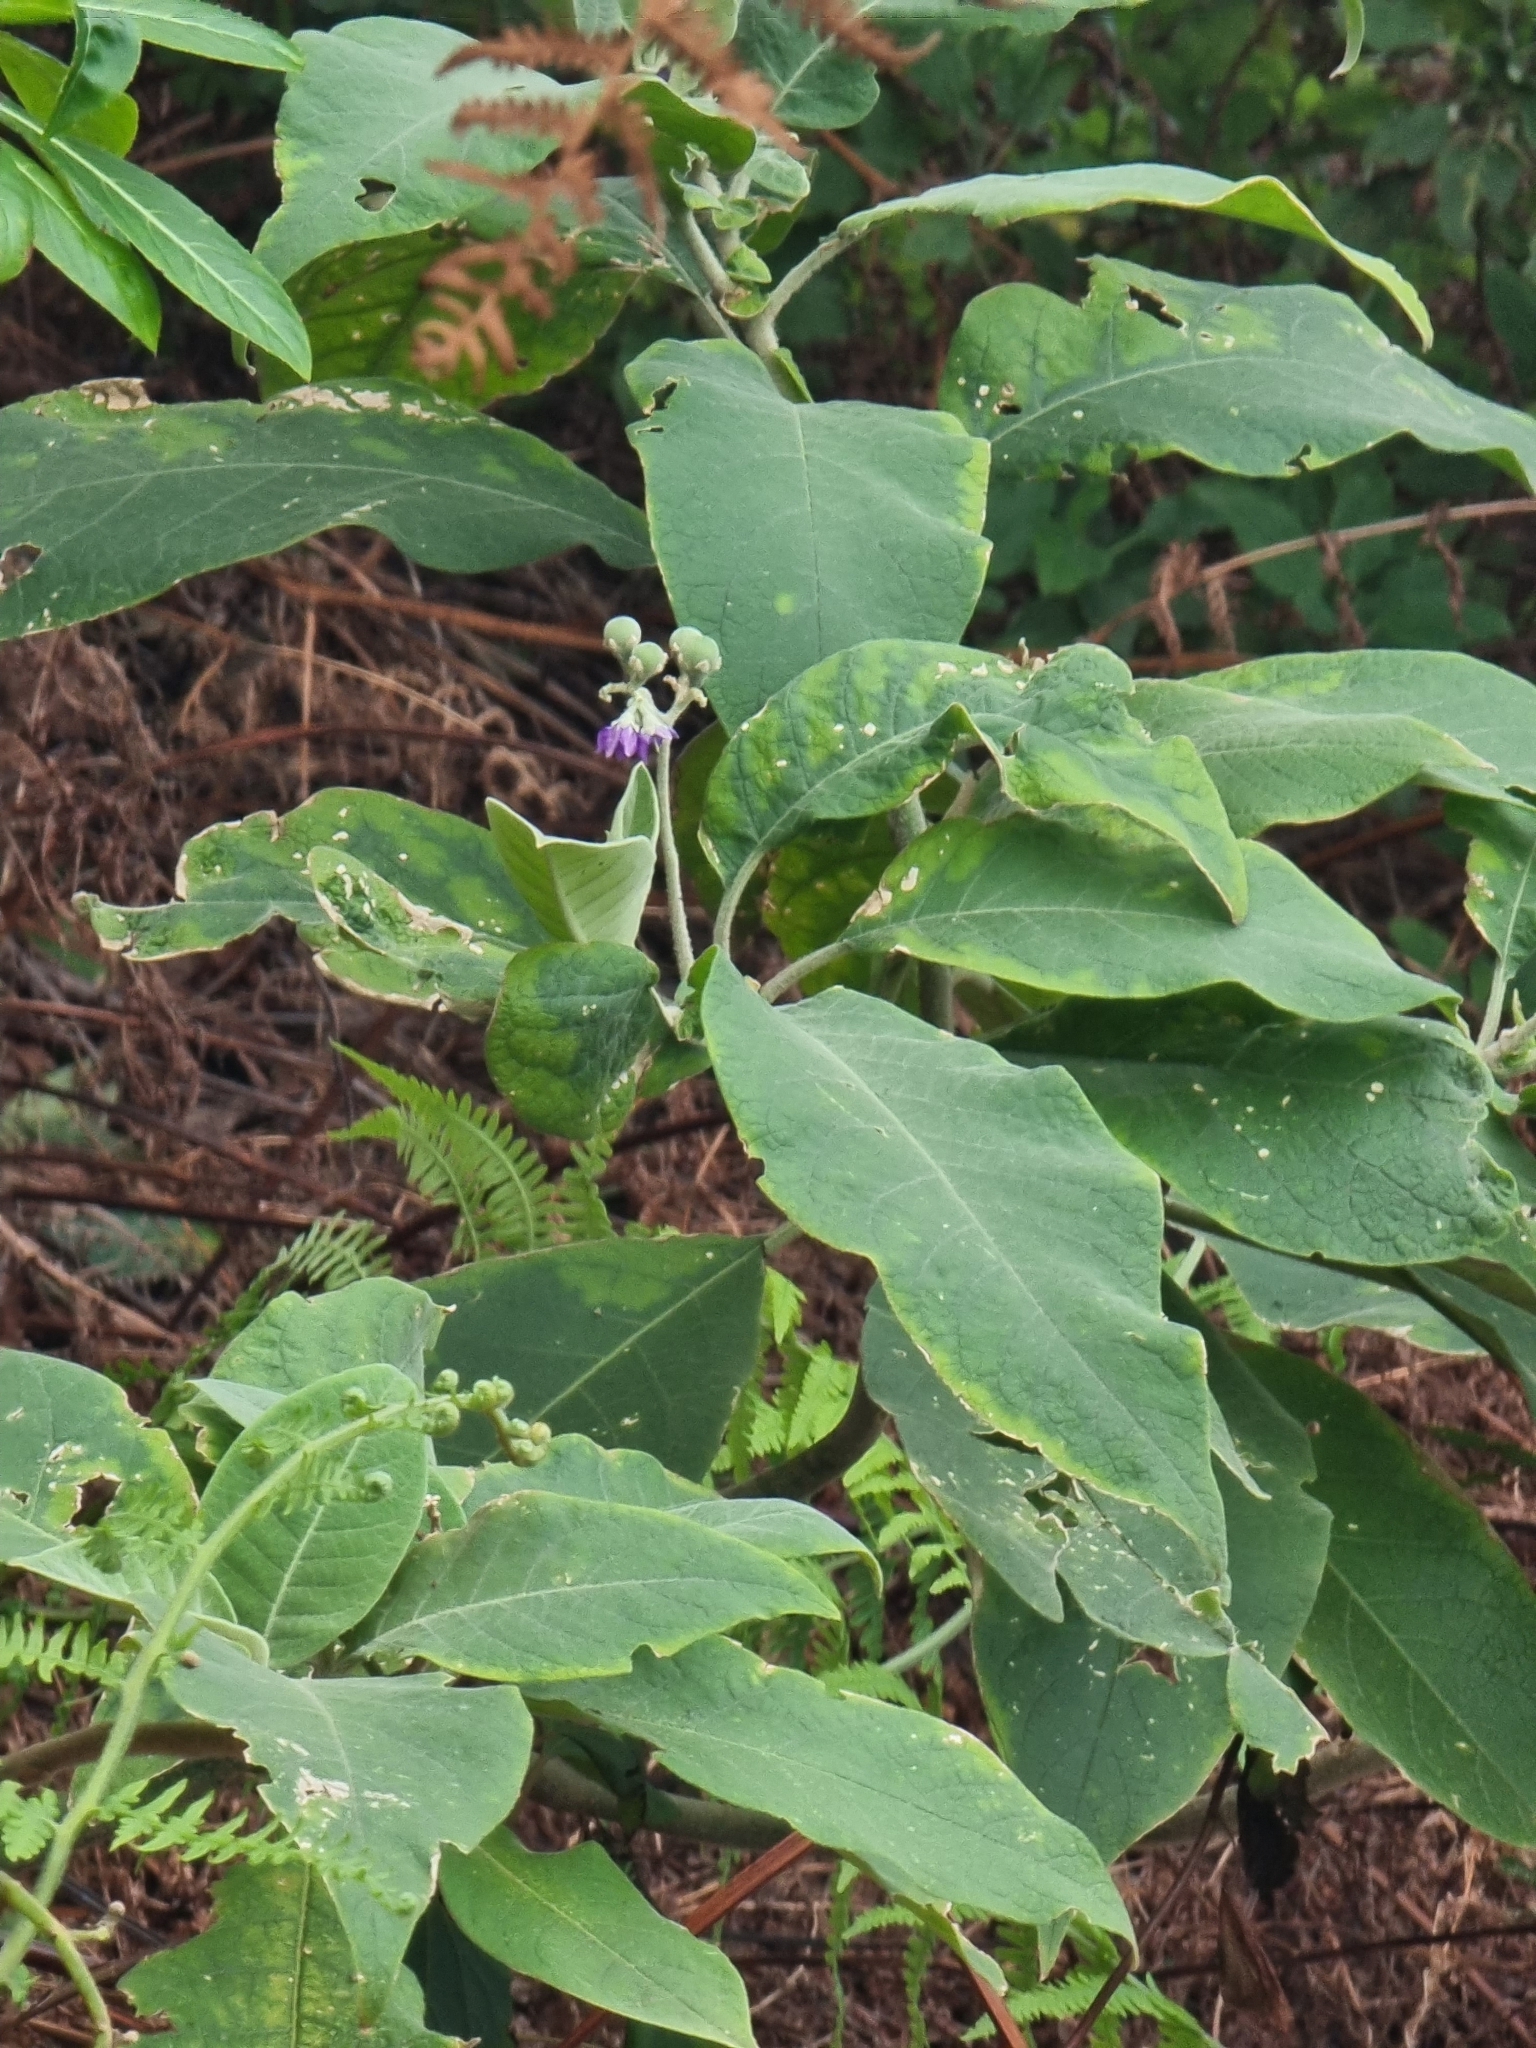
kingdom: Plantae
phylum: Tracheophyta
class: Magnoliopsida
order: Solanales
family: Solanaceae
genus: Solanum
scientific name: Solanum mauritianum
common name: Earleaf nightshade
